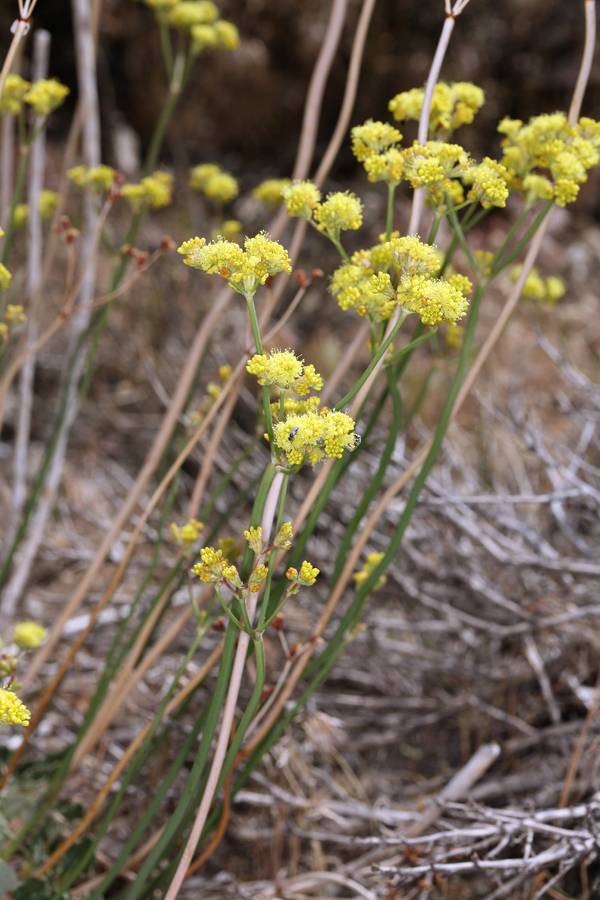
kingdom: Plantae
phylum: Tracheophyta
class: Magnoliopsida
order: Caryophyllales
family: Polygonaceae
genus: Eriogonum
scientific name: Eriogonum nudum
